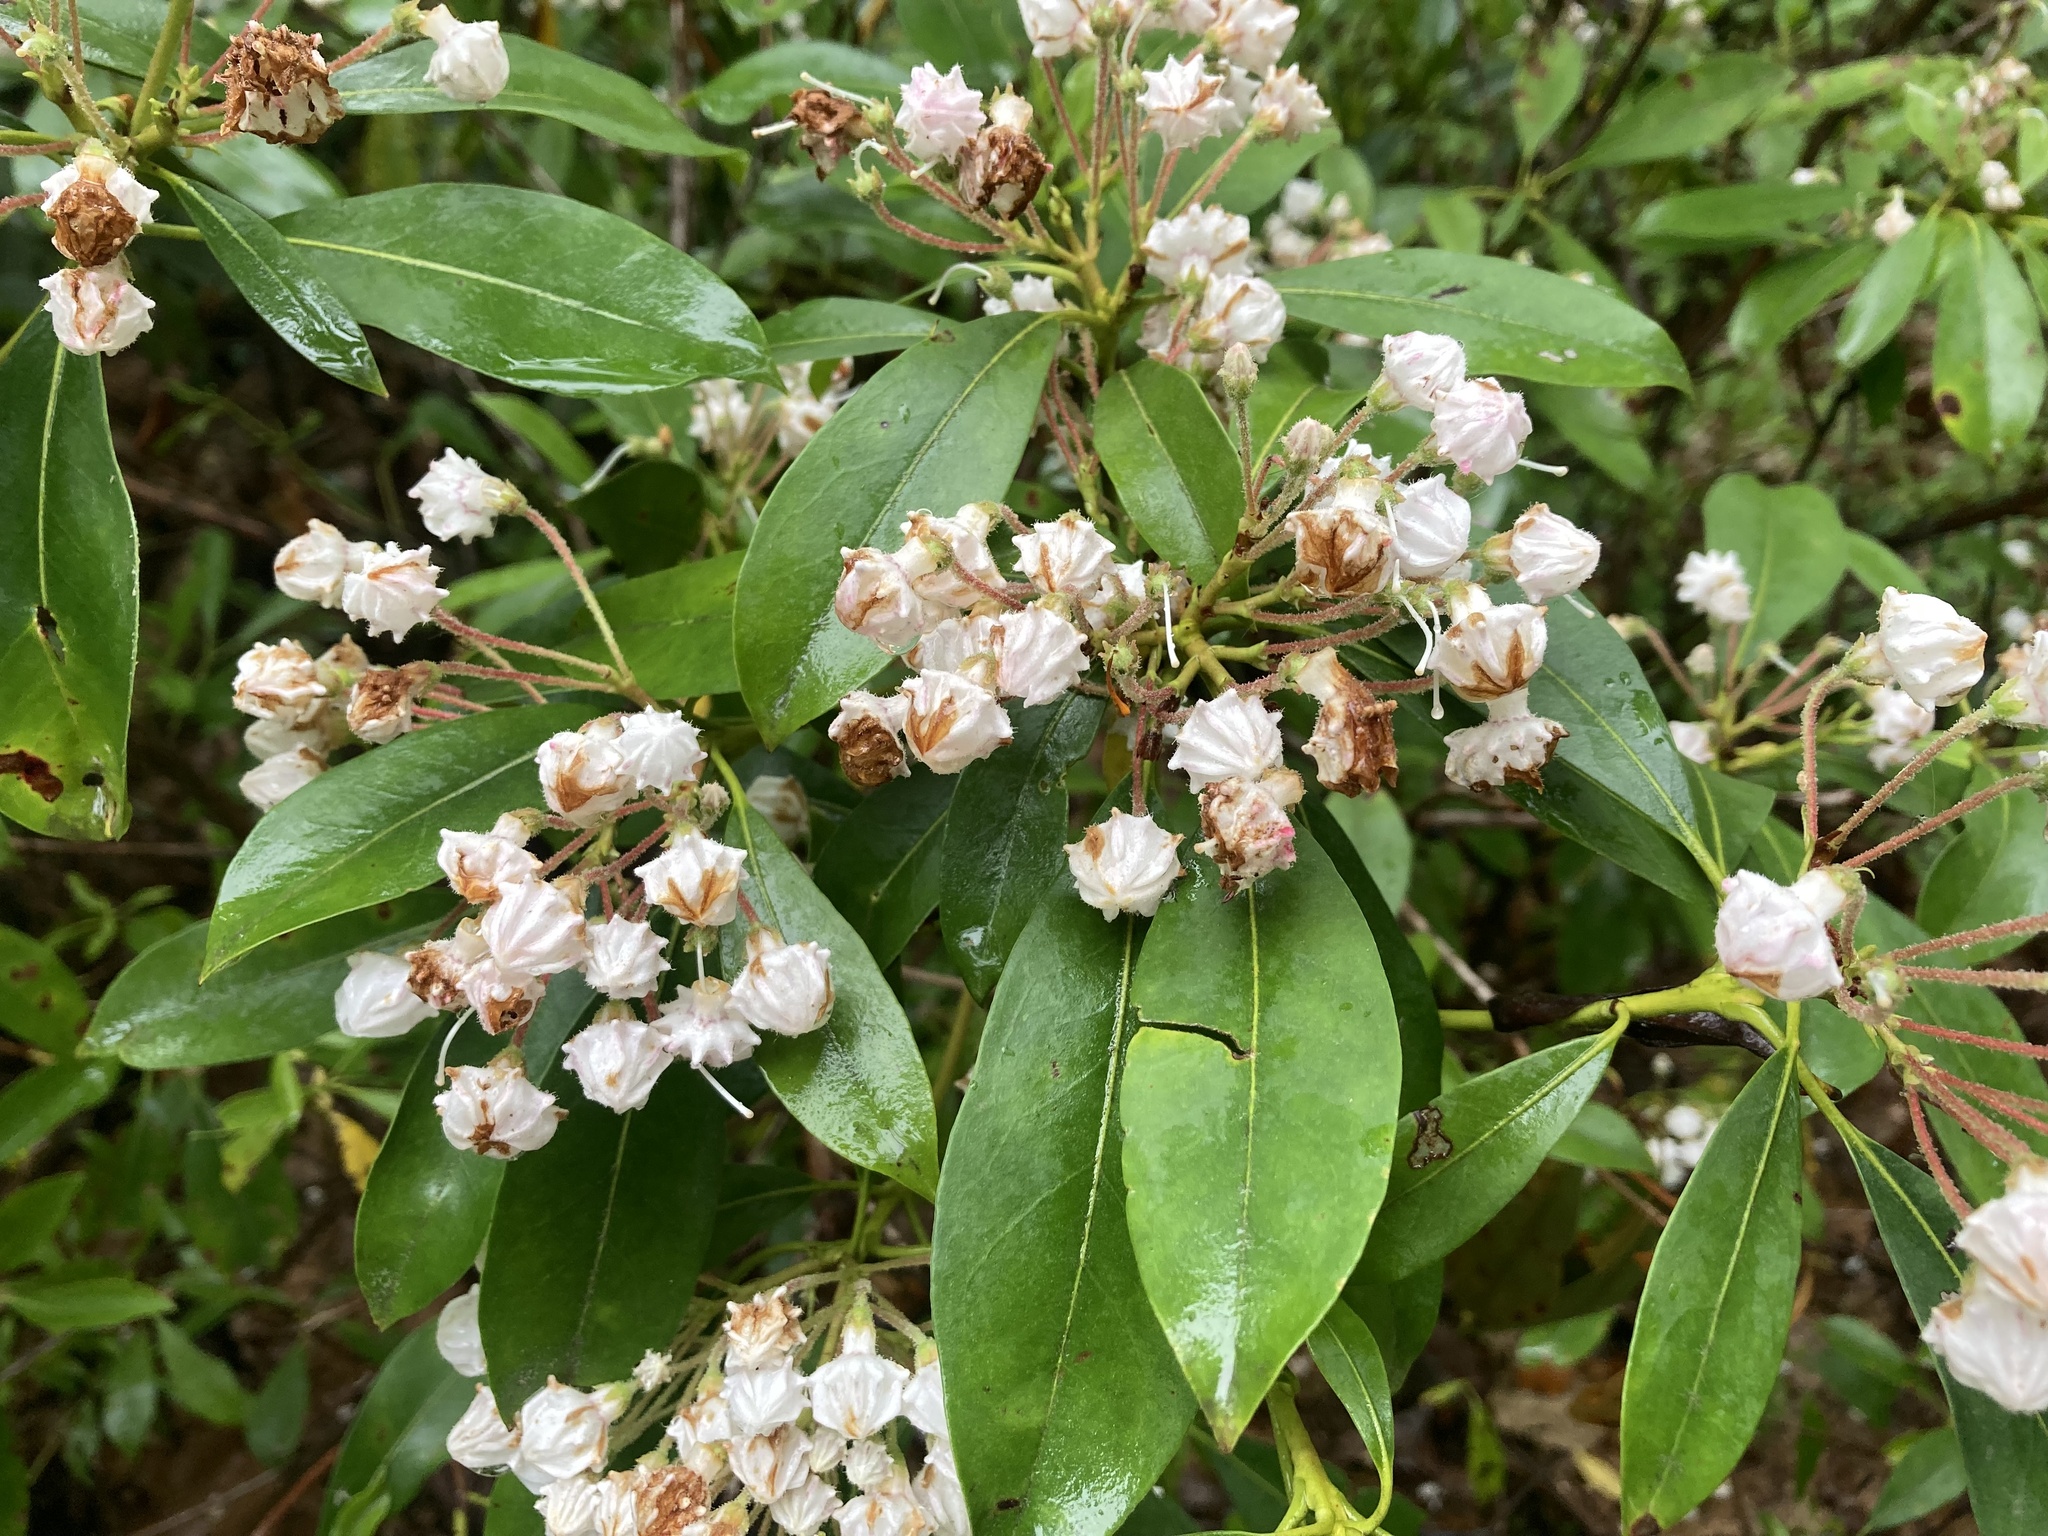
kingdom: Plantae
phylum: Tracheophyta
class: Magnoliopsida
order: Ericales
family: Ericaceae
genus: Kalmia
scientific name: Kalmia latifolia
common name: Mountain-laurel
